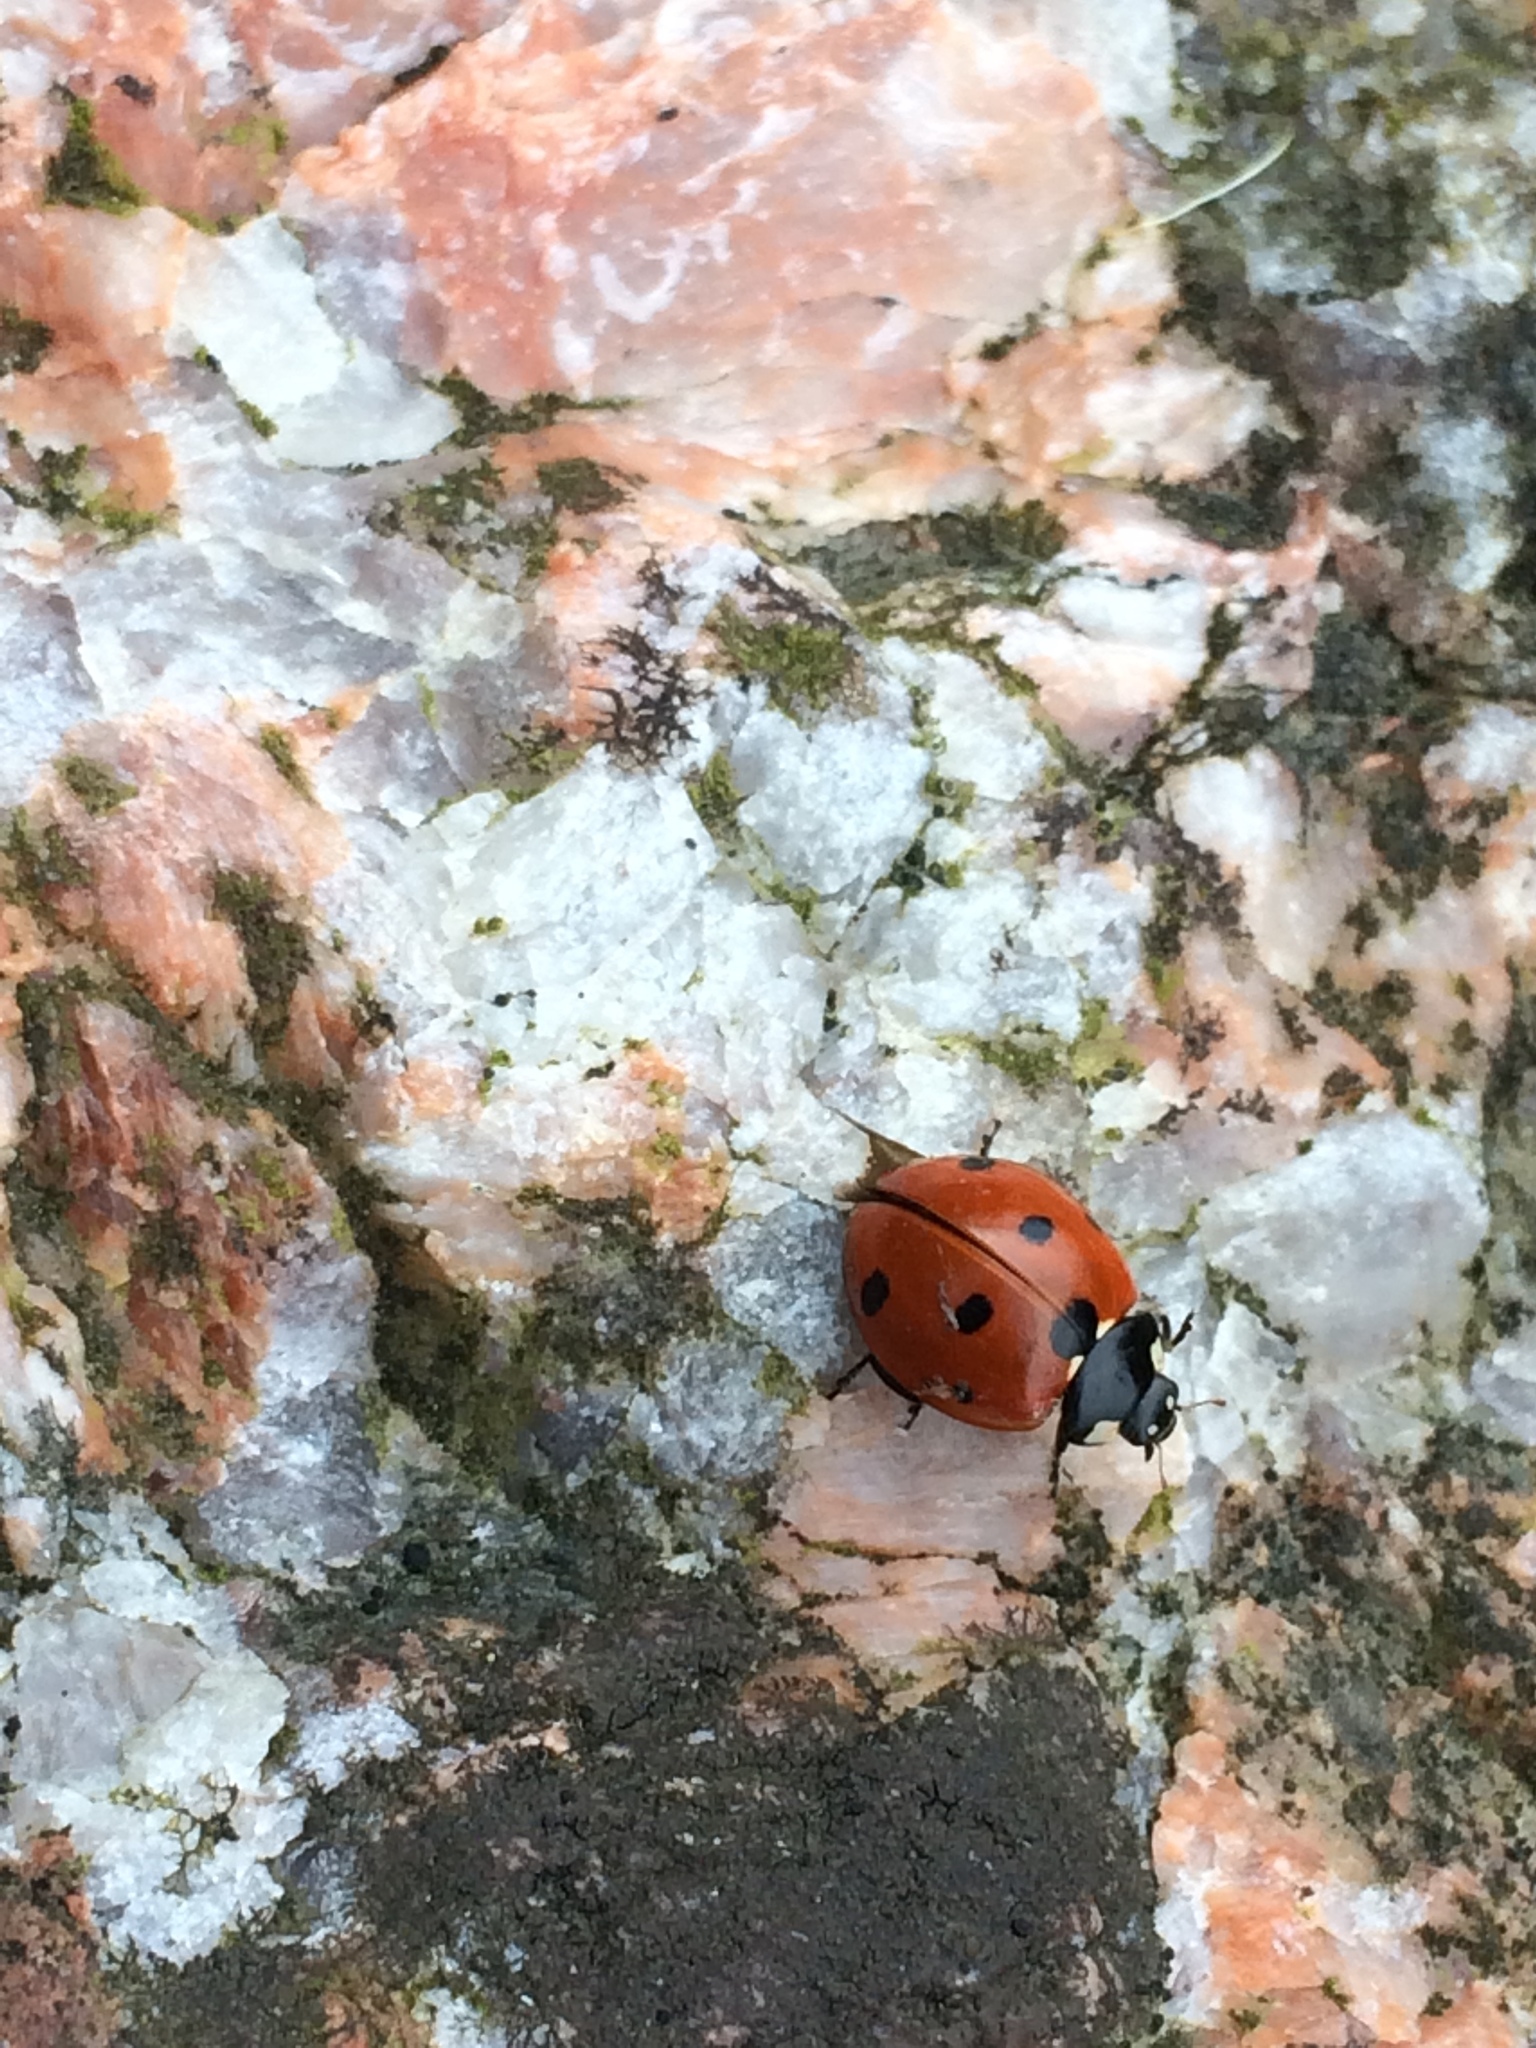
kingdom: Animalia
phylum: Arthropoda
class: Insecta
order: Coleoptera
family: Coccinellidae
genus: Coccinella
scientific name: Coccinella septempunctata
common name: Sevenspotted lady beetle
